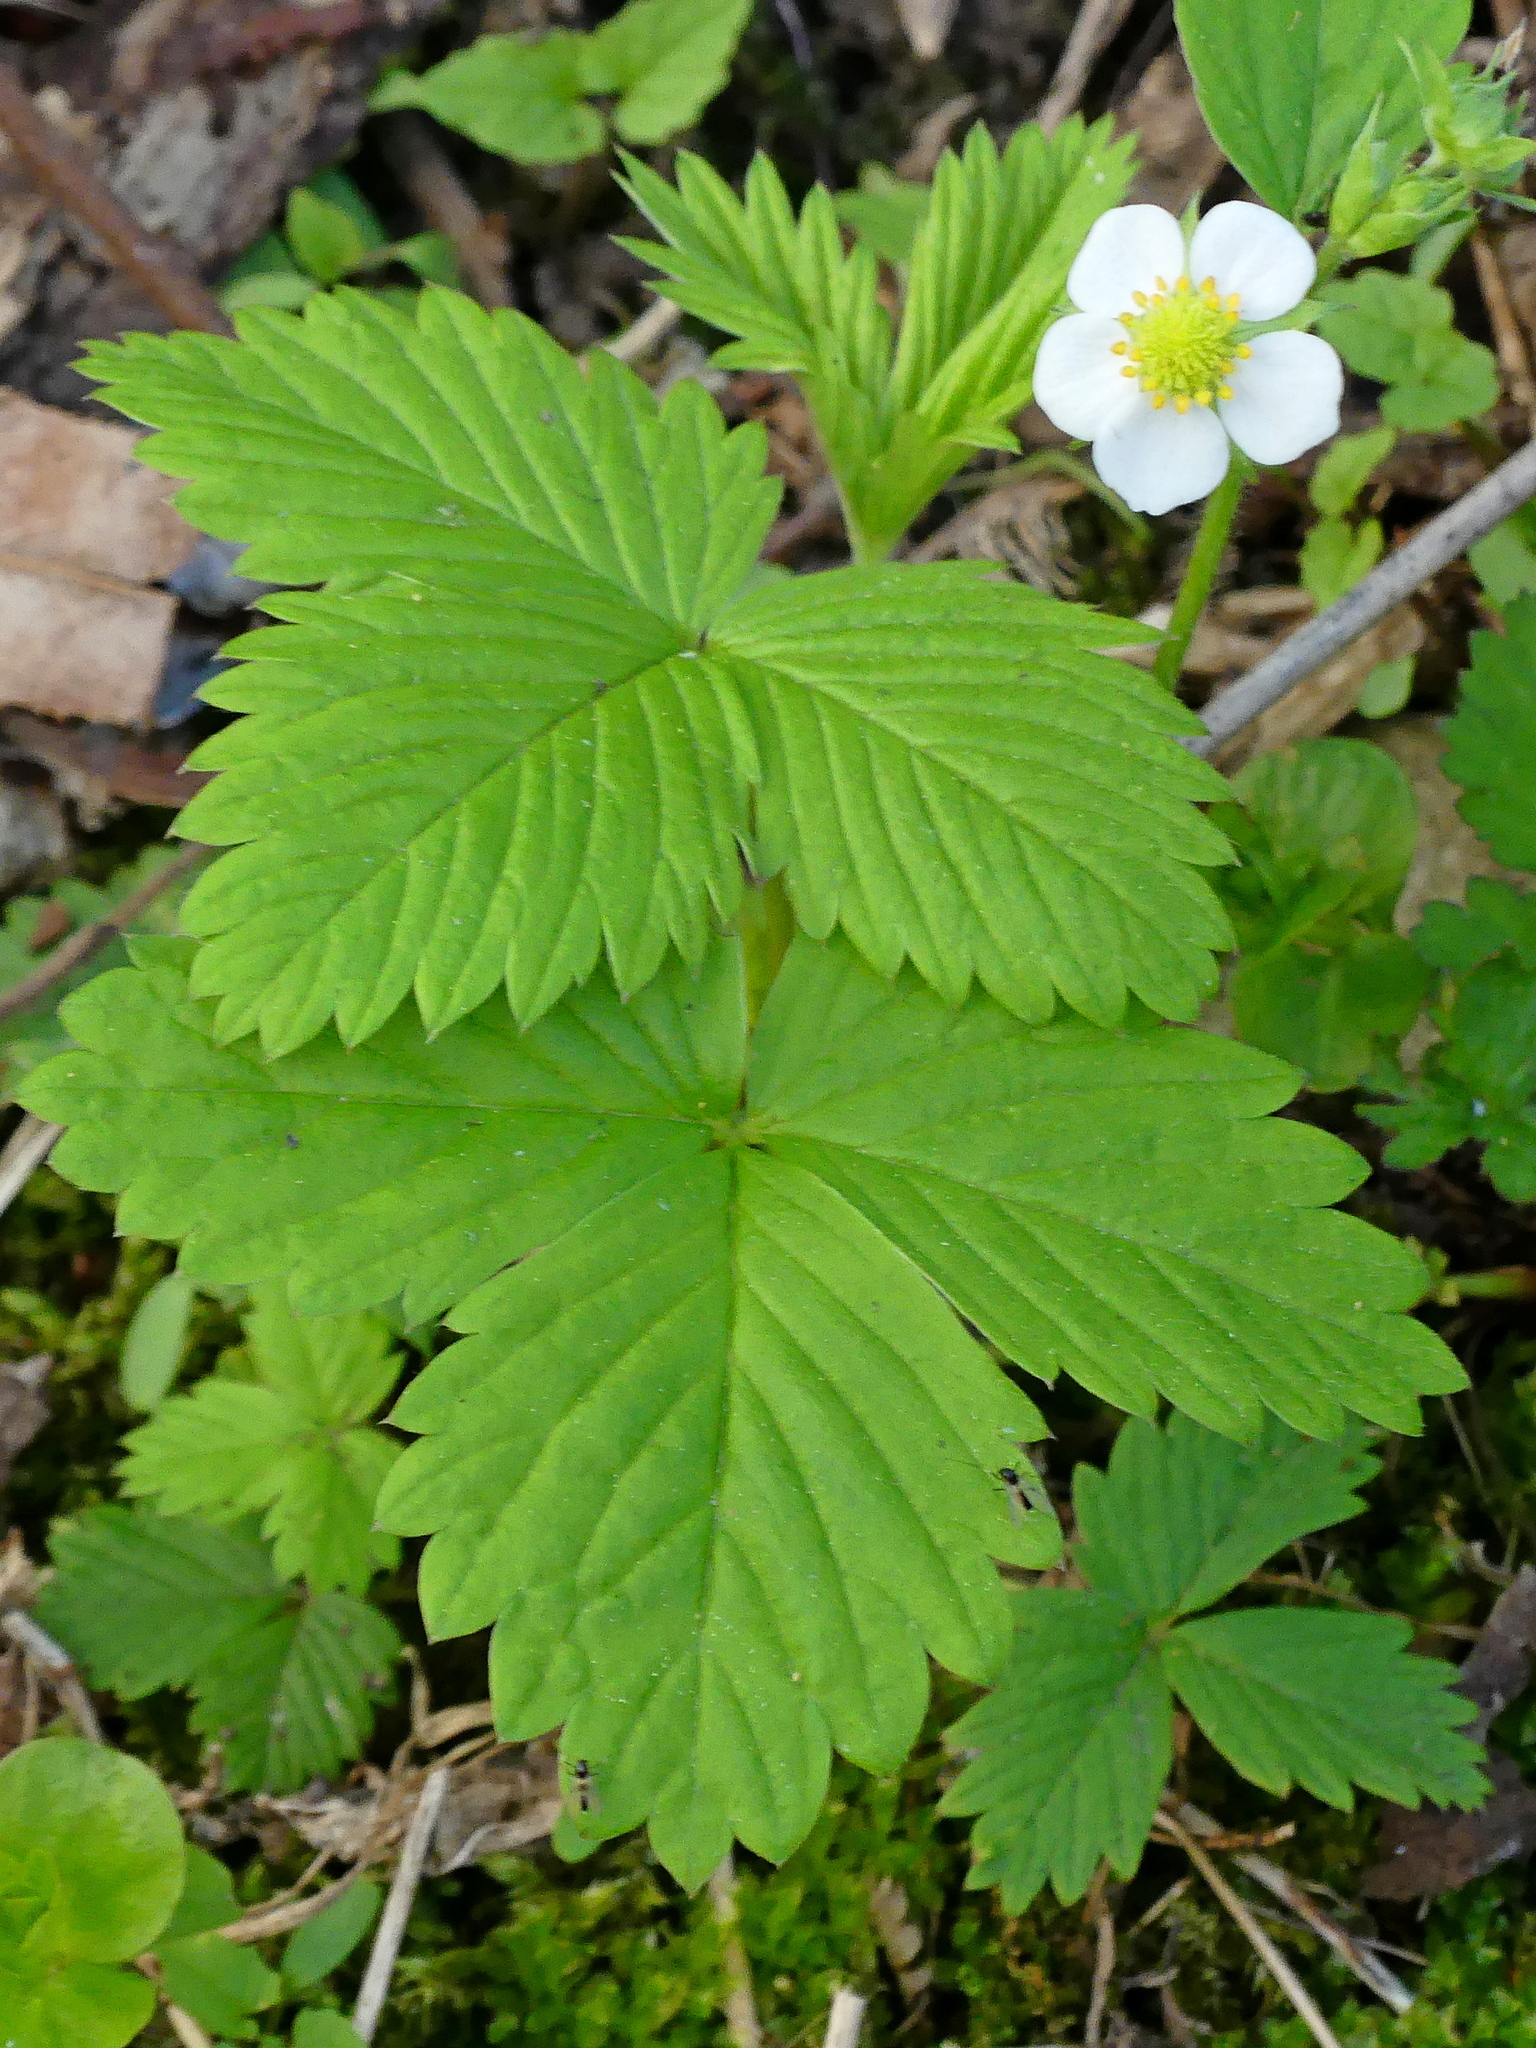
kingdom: Plantae
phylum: Tracheophyta
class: Magnoliopsida
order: Rosales
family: Rosaceae
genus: Fragaria
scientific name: Fragaria vesca
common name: Wild strawberry
